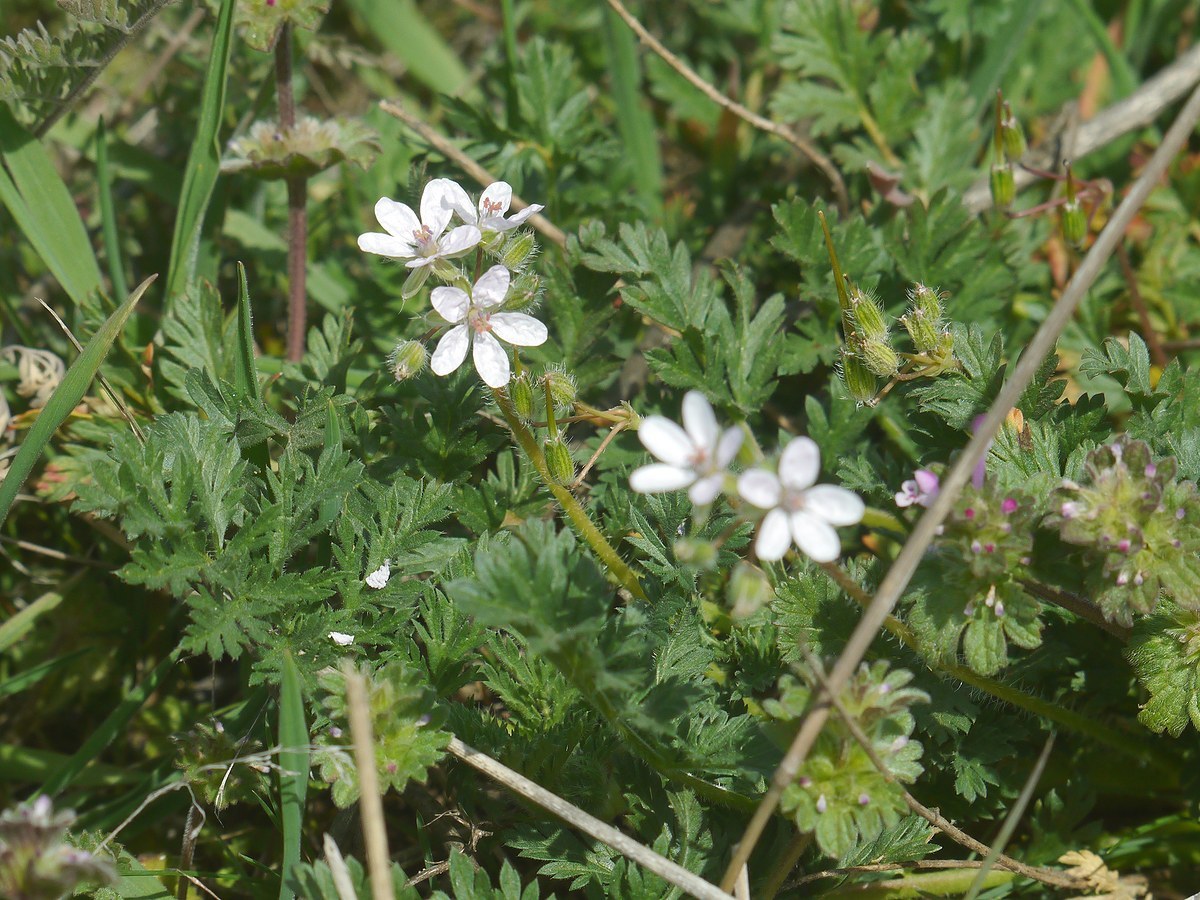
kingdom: Plantae
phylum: Tracheophyta
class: Magnoliopsida
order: Geraniales
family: Geraniaceae
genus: Erodium
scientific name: Erodium cicutarium
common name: Common stork's-bill
